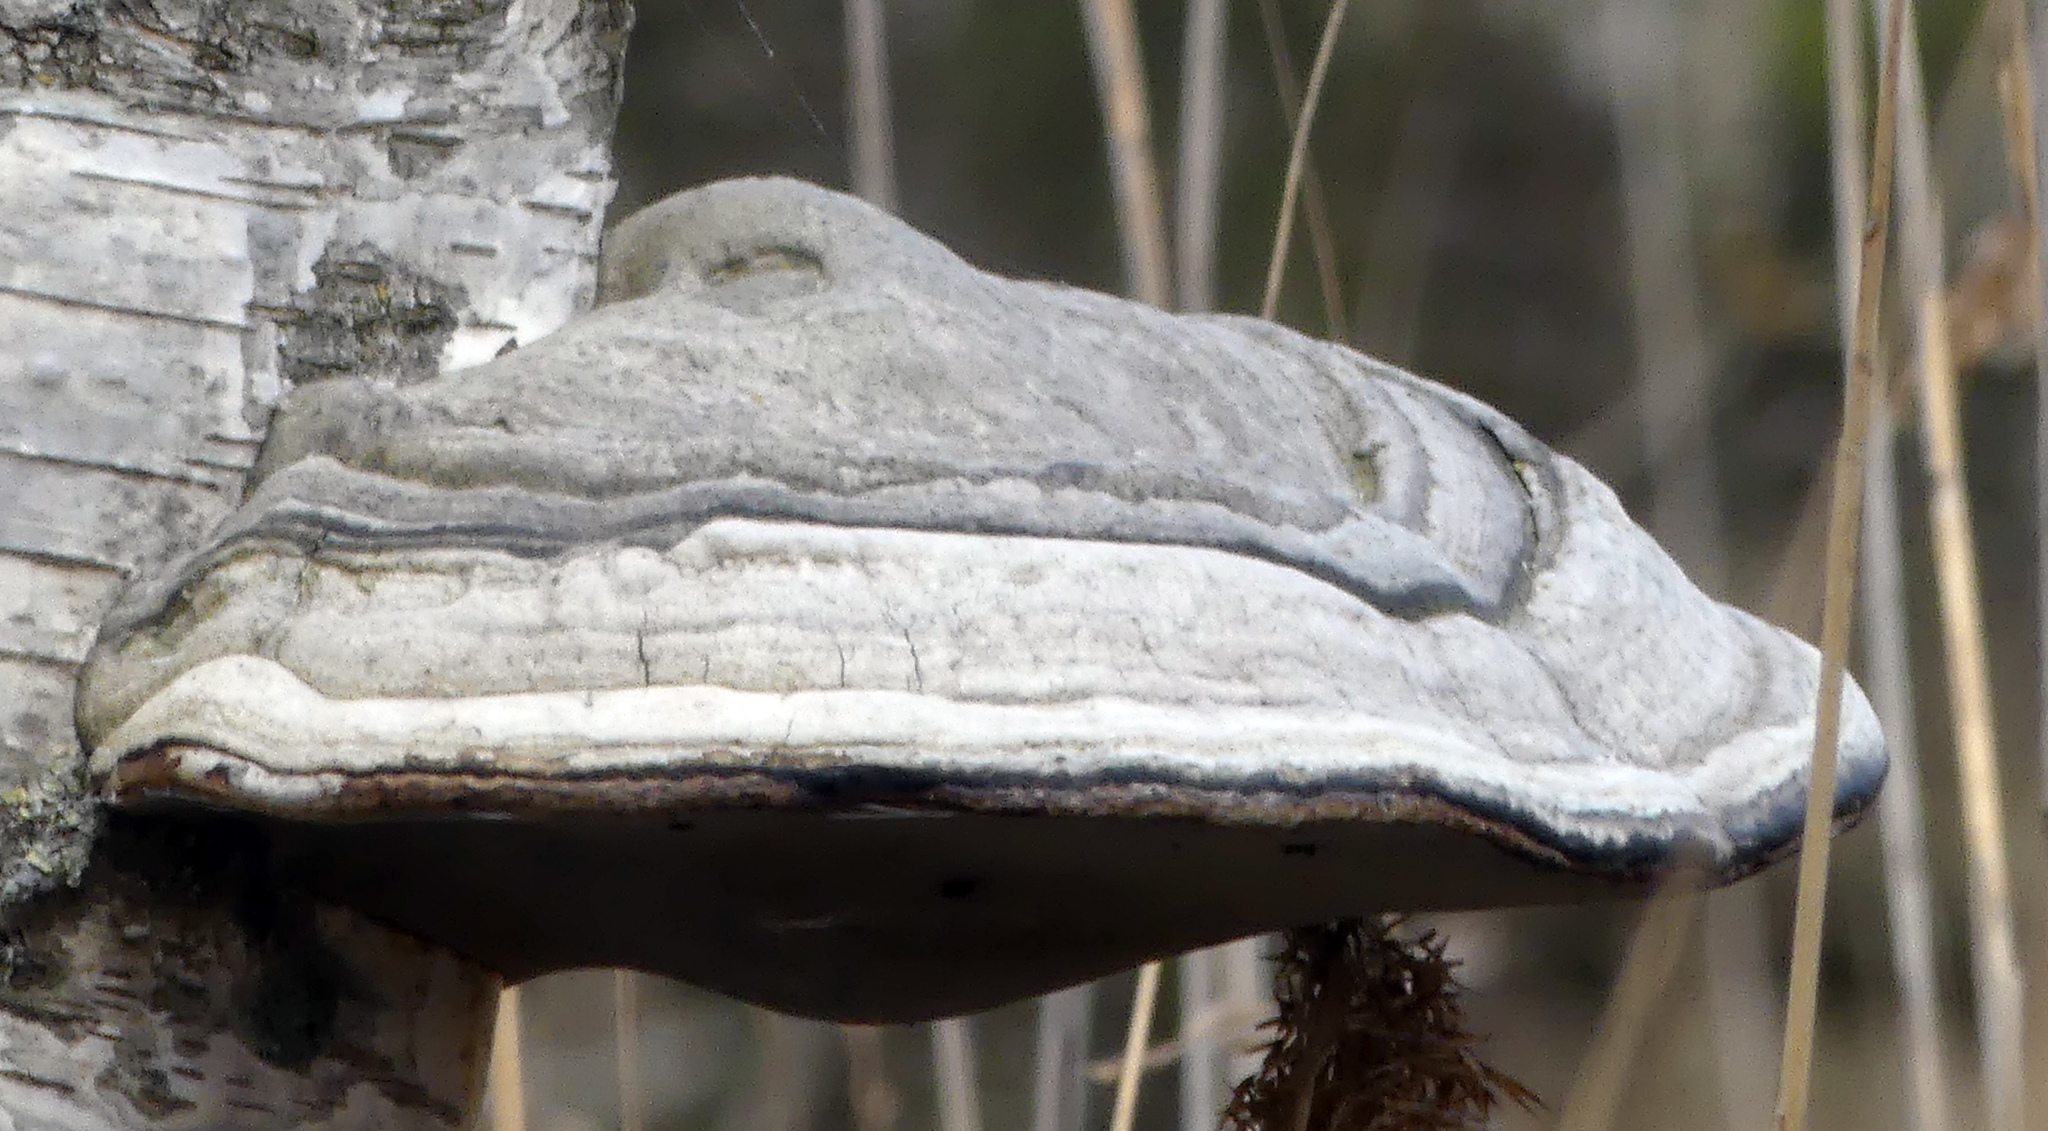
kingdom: Fungi
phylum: Basidiomycota
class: Agaricomycetes
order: Polyporales
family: Polyporaceae
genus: Fomes
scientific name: Fomes fomentarius
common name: Hoof fungus
